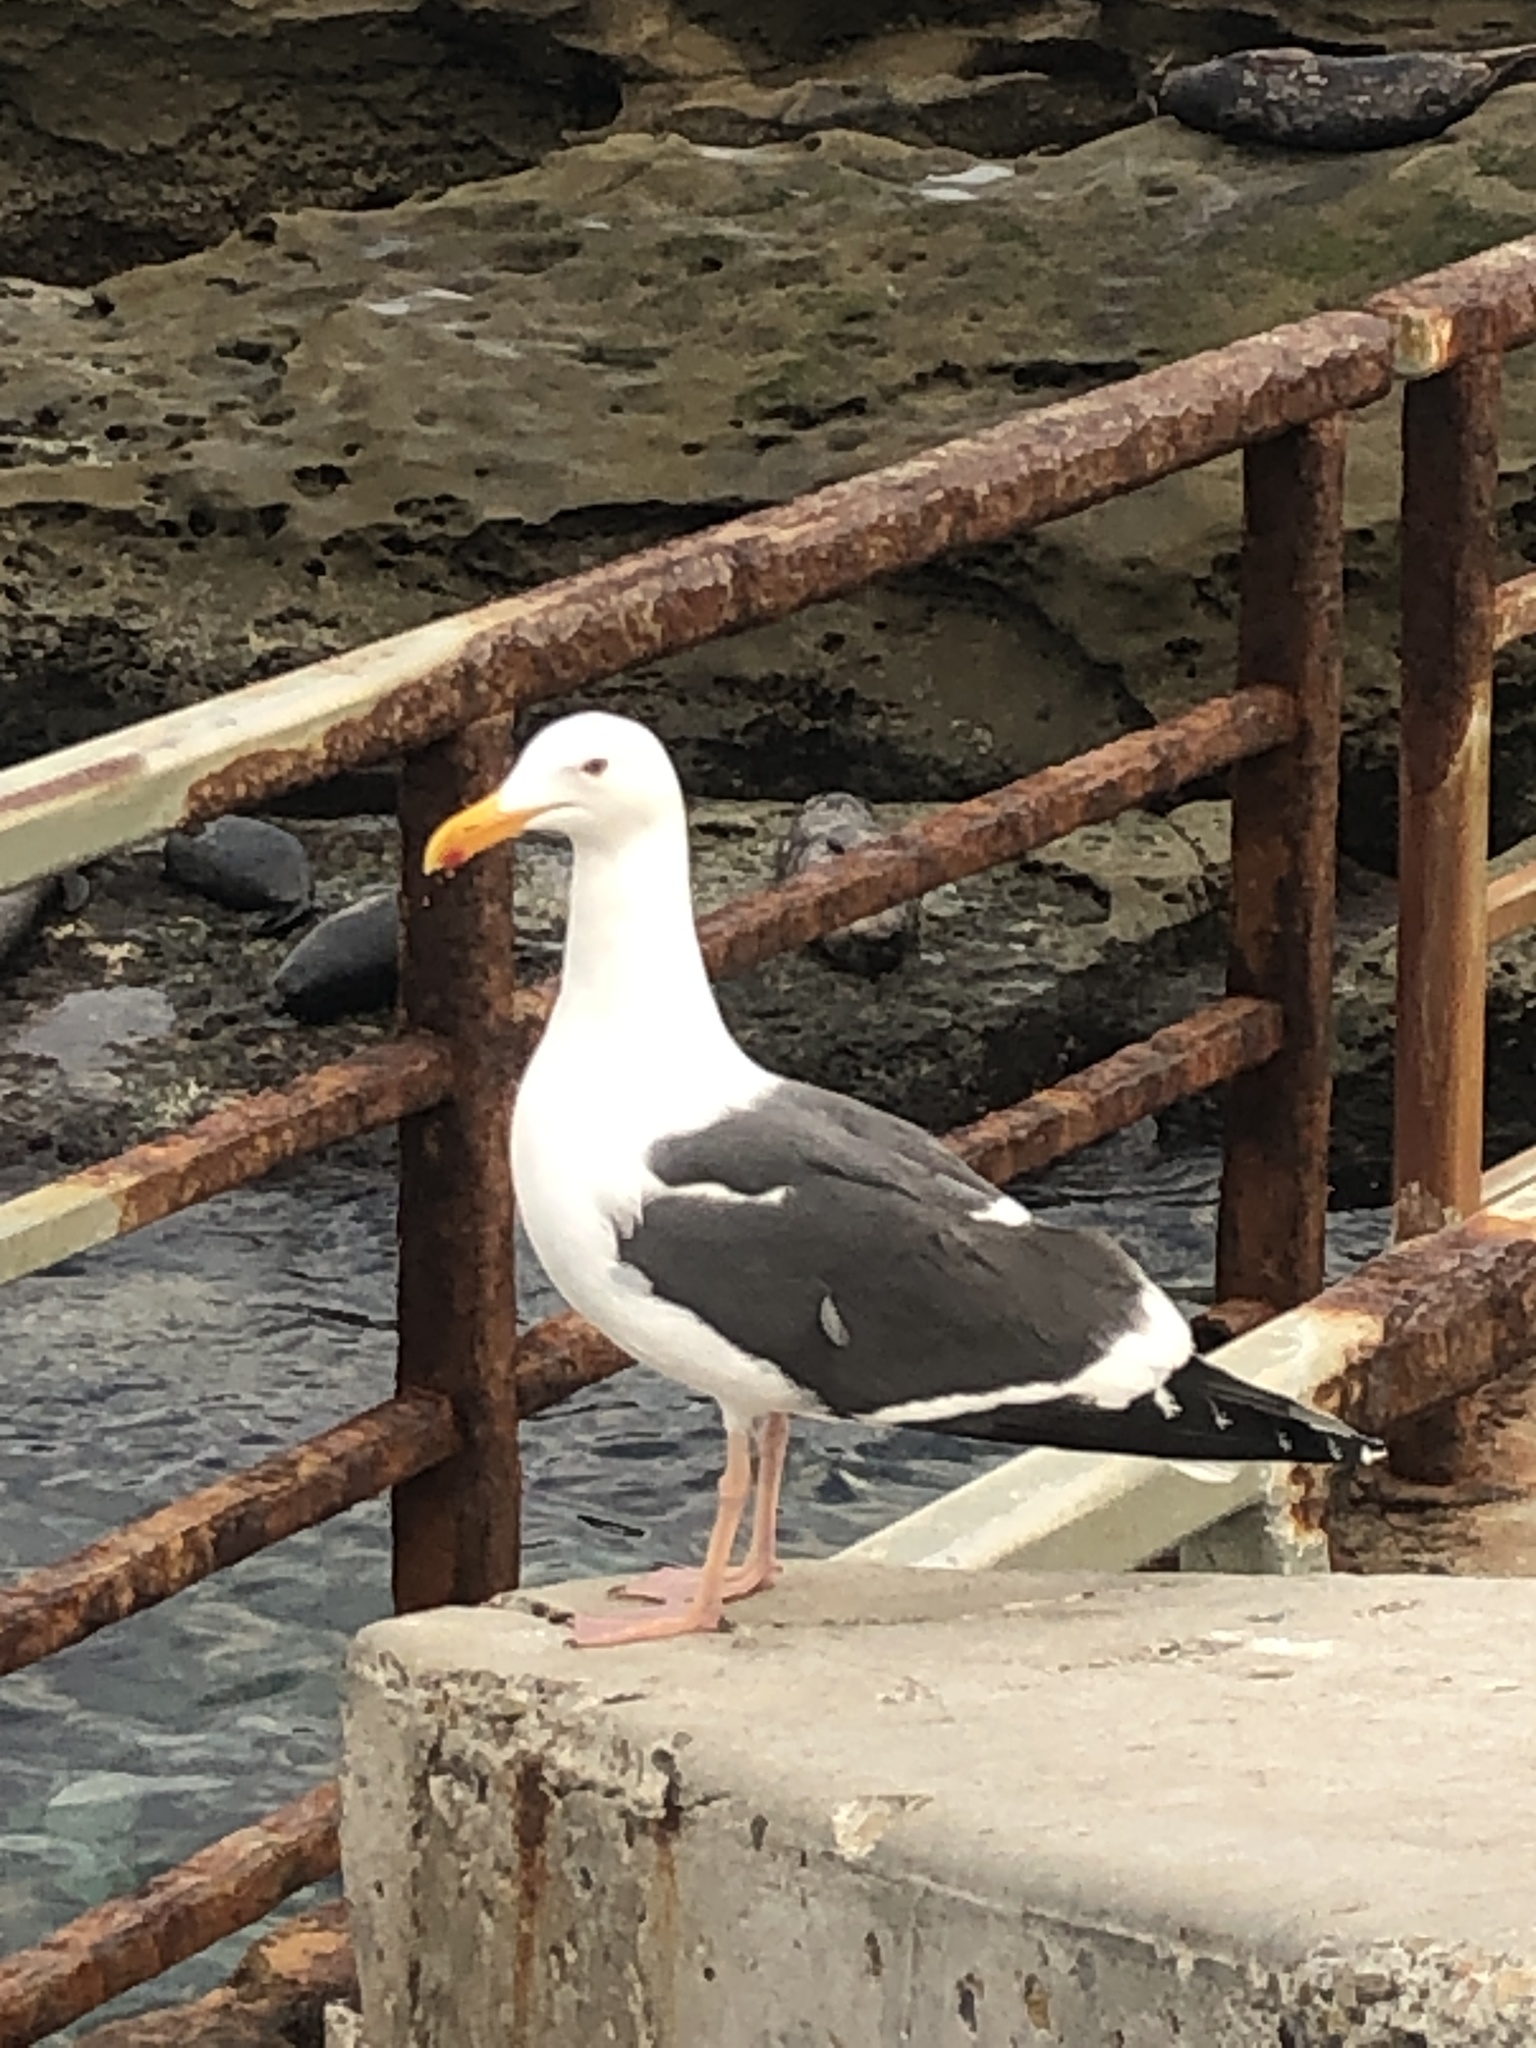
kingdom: Animalia
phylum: Chordata
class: Aves
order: Charadriiformes
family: Laridae
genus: Larus
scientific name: Larus occidentalis
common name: Western gull
